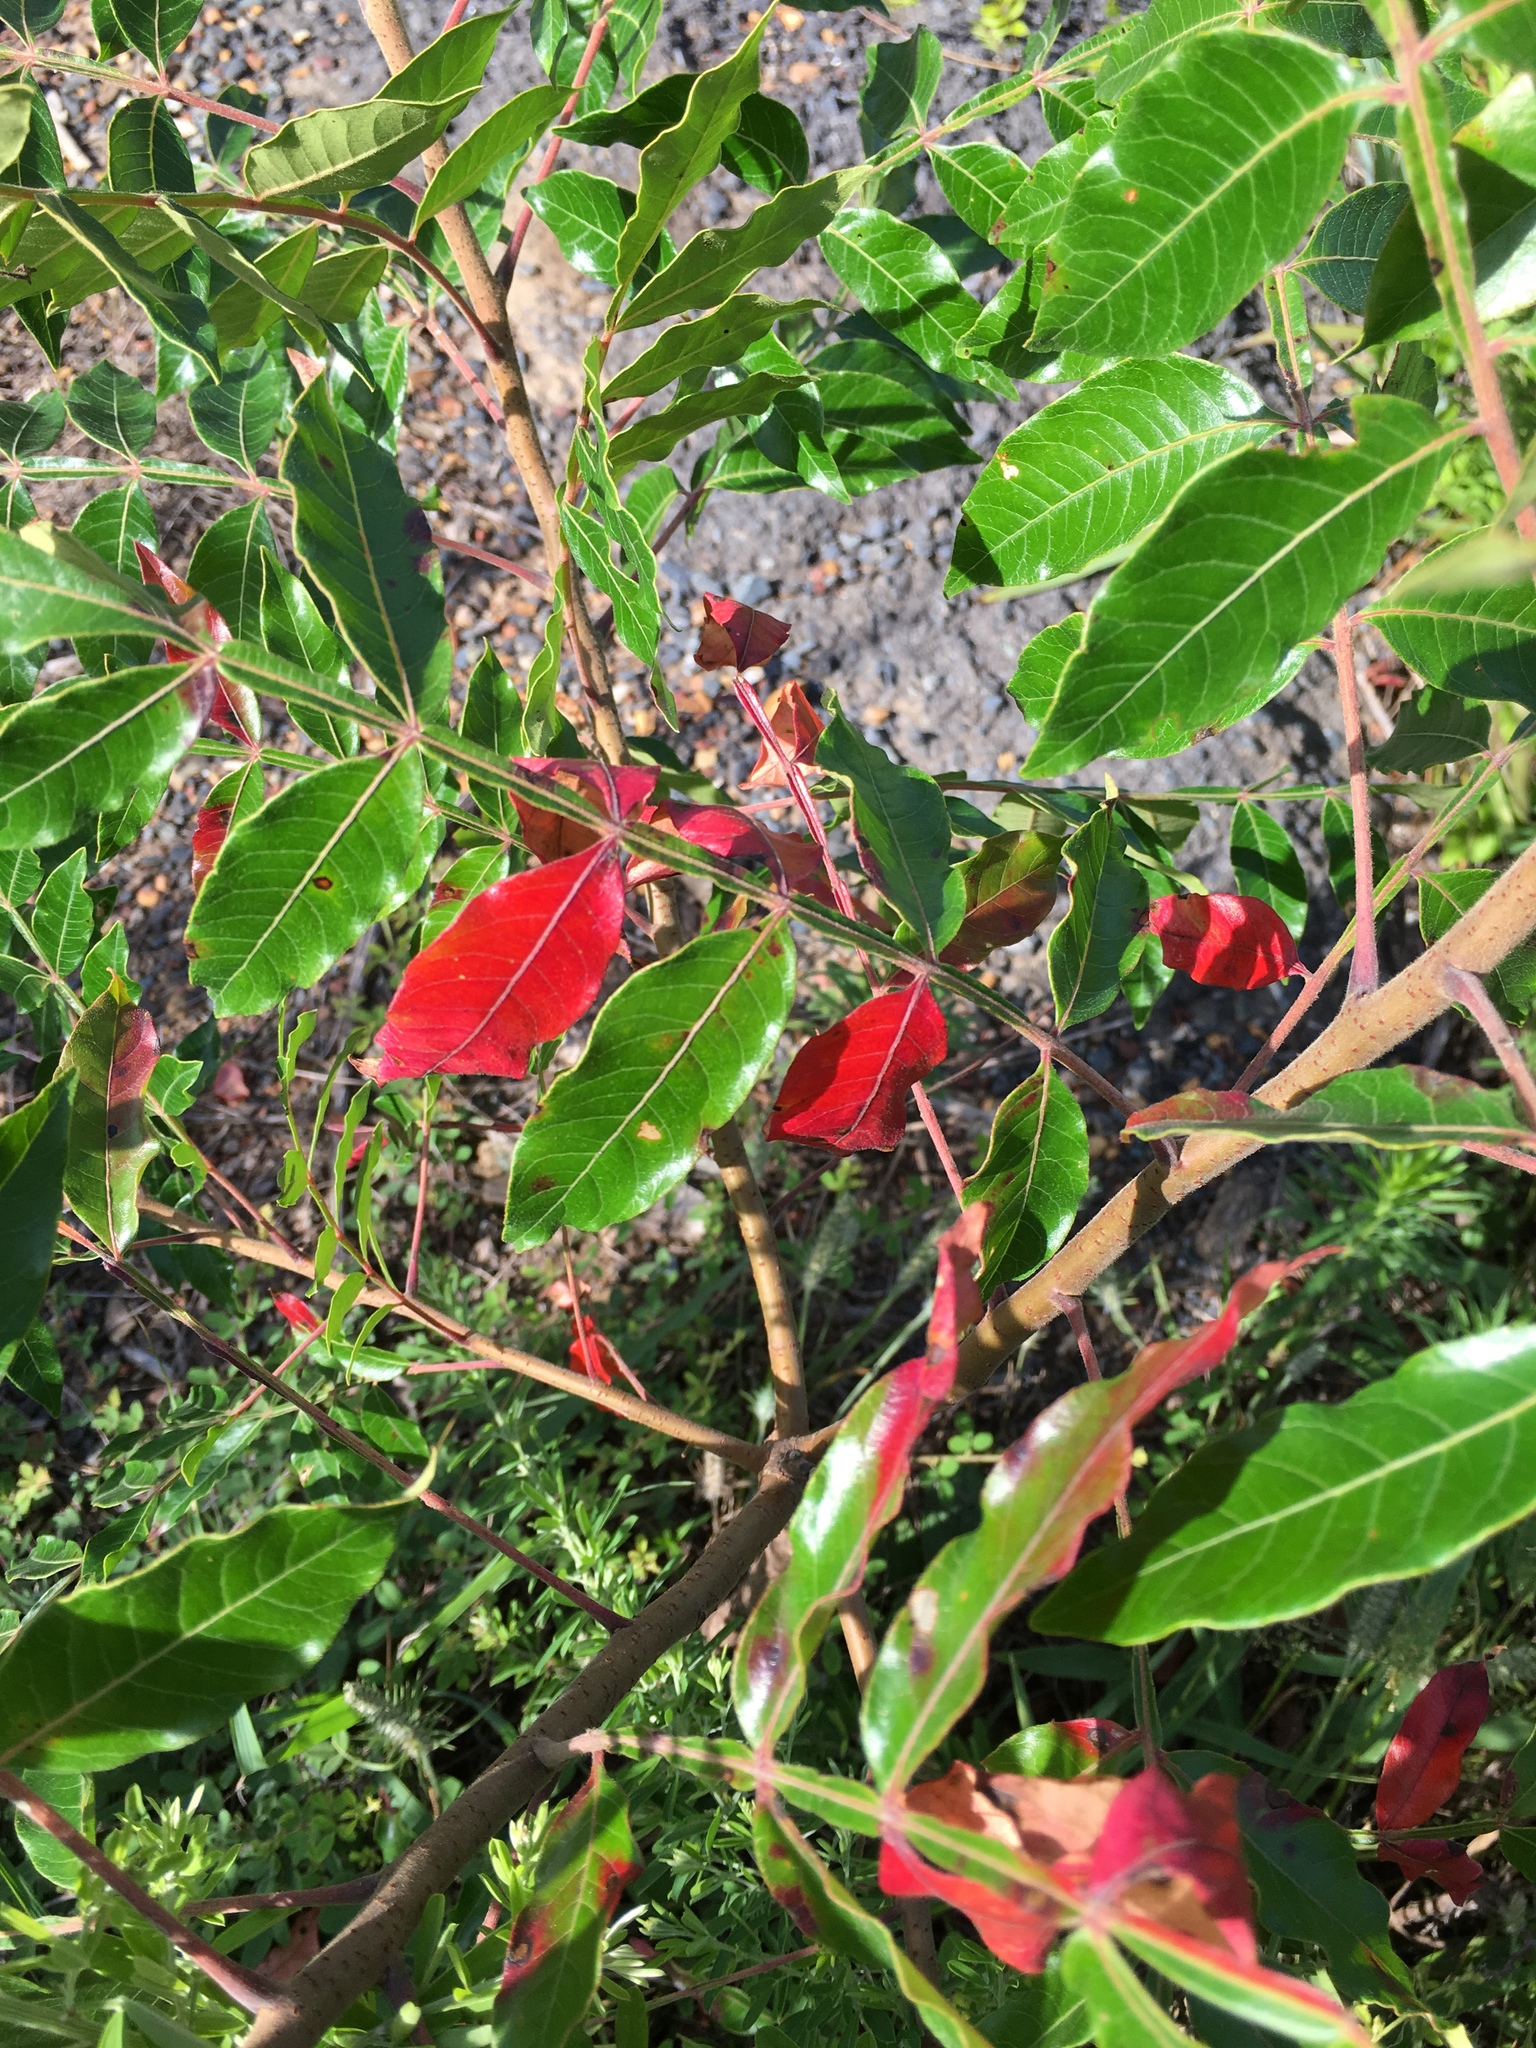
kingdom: Plantae
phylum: Tracheophyta
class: Magnoliopsida
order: Sapindales
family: Anacardiaceae
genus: Rhus
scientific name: Rhus copallina
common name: Shining sumac
